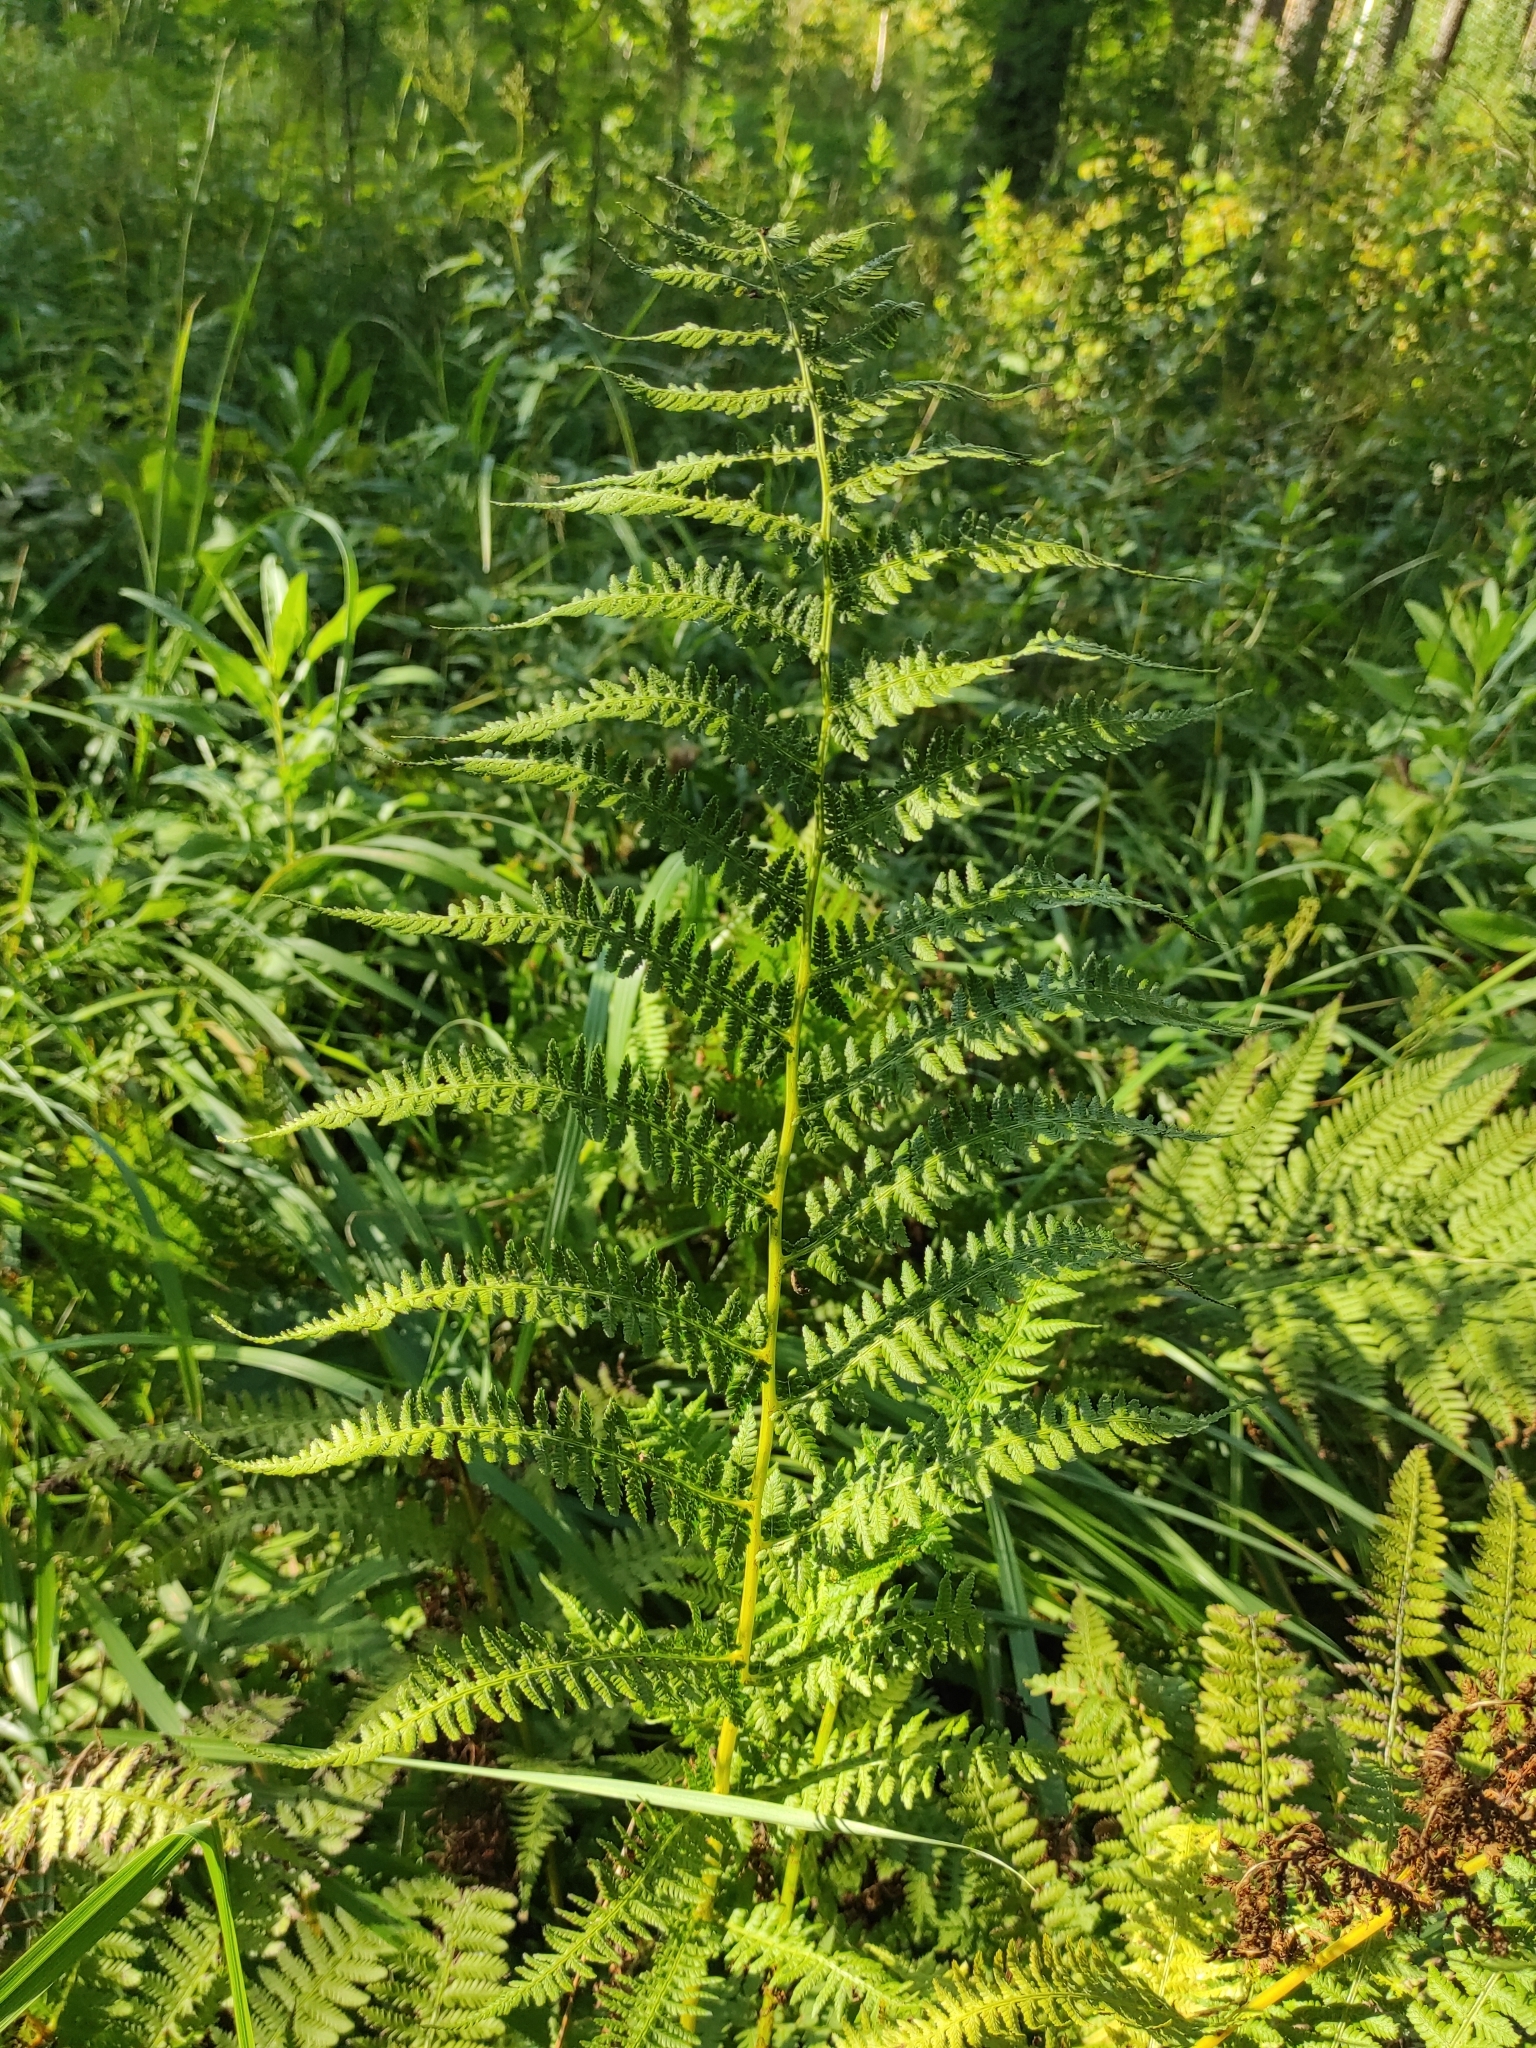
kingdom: Plantae
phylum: Tracheophyta
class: Polypodiopsida
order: Polypodiales
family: Athyriaceae
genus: Athyrium
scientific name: Athyrium filix-femina
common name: Lady fern
